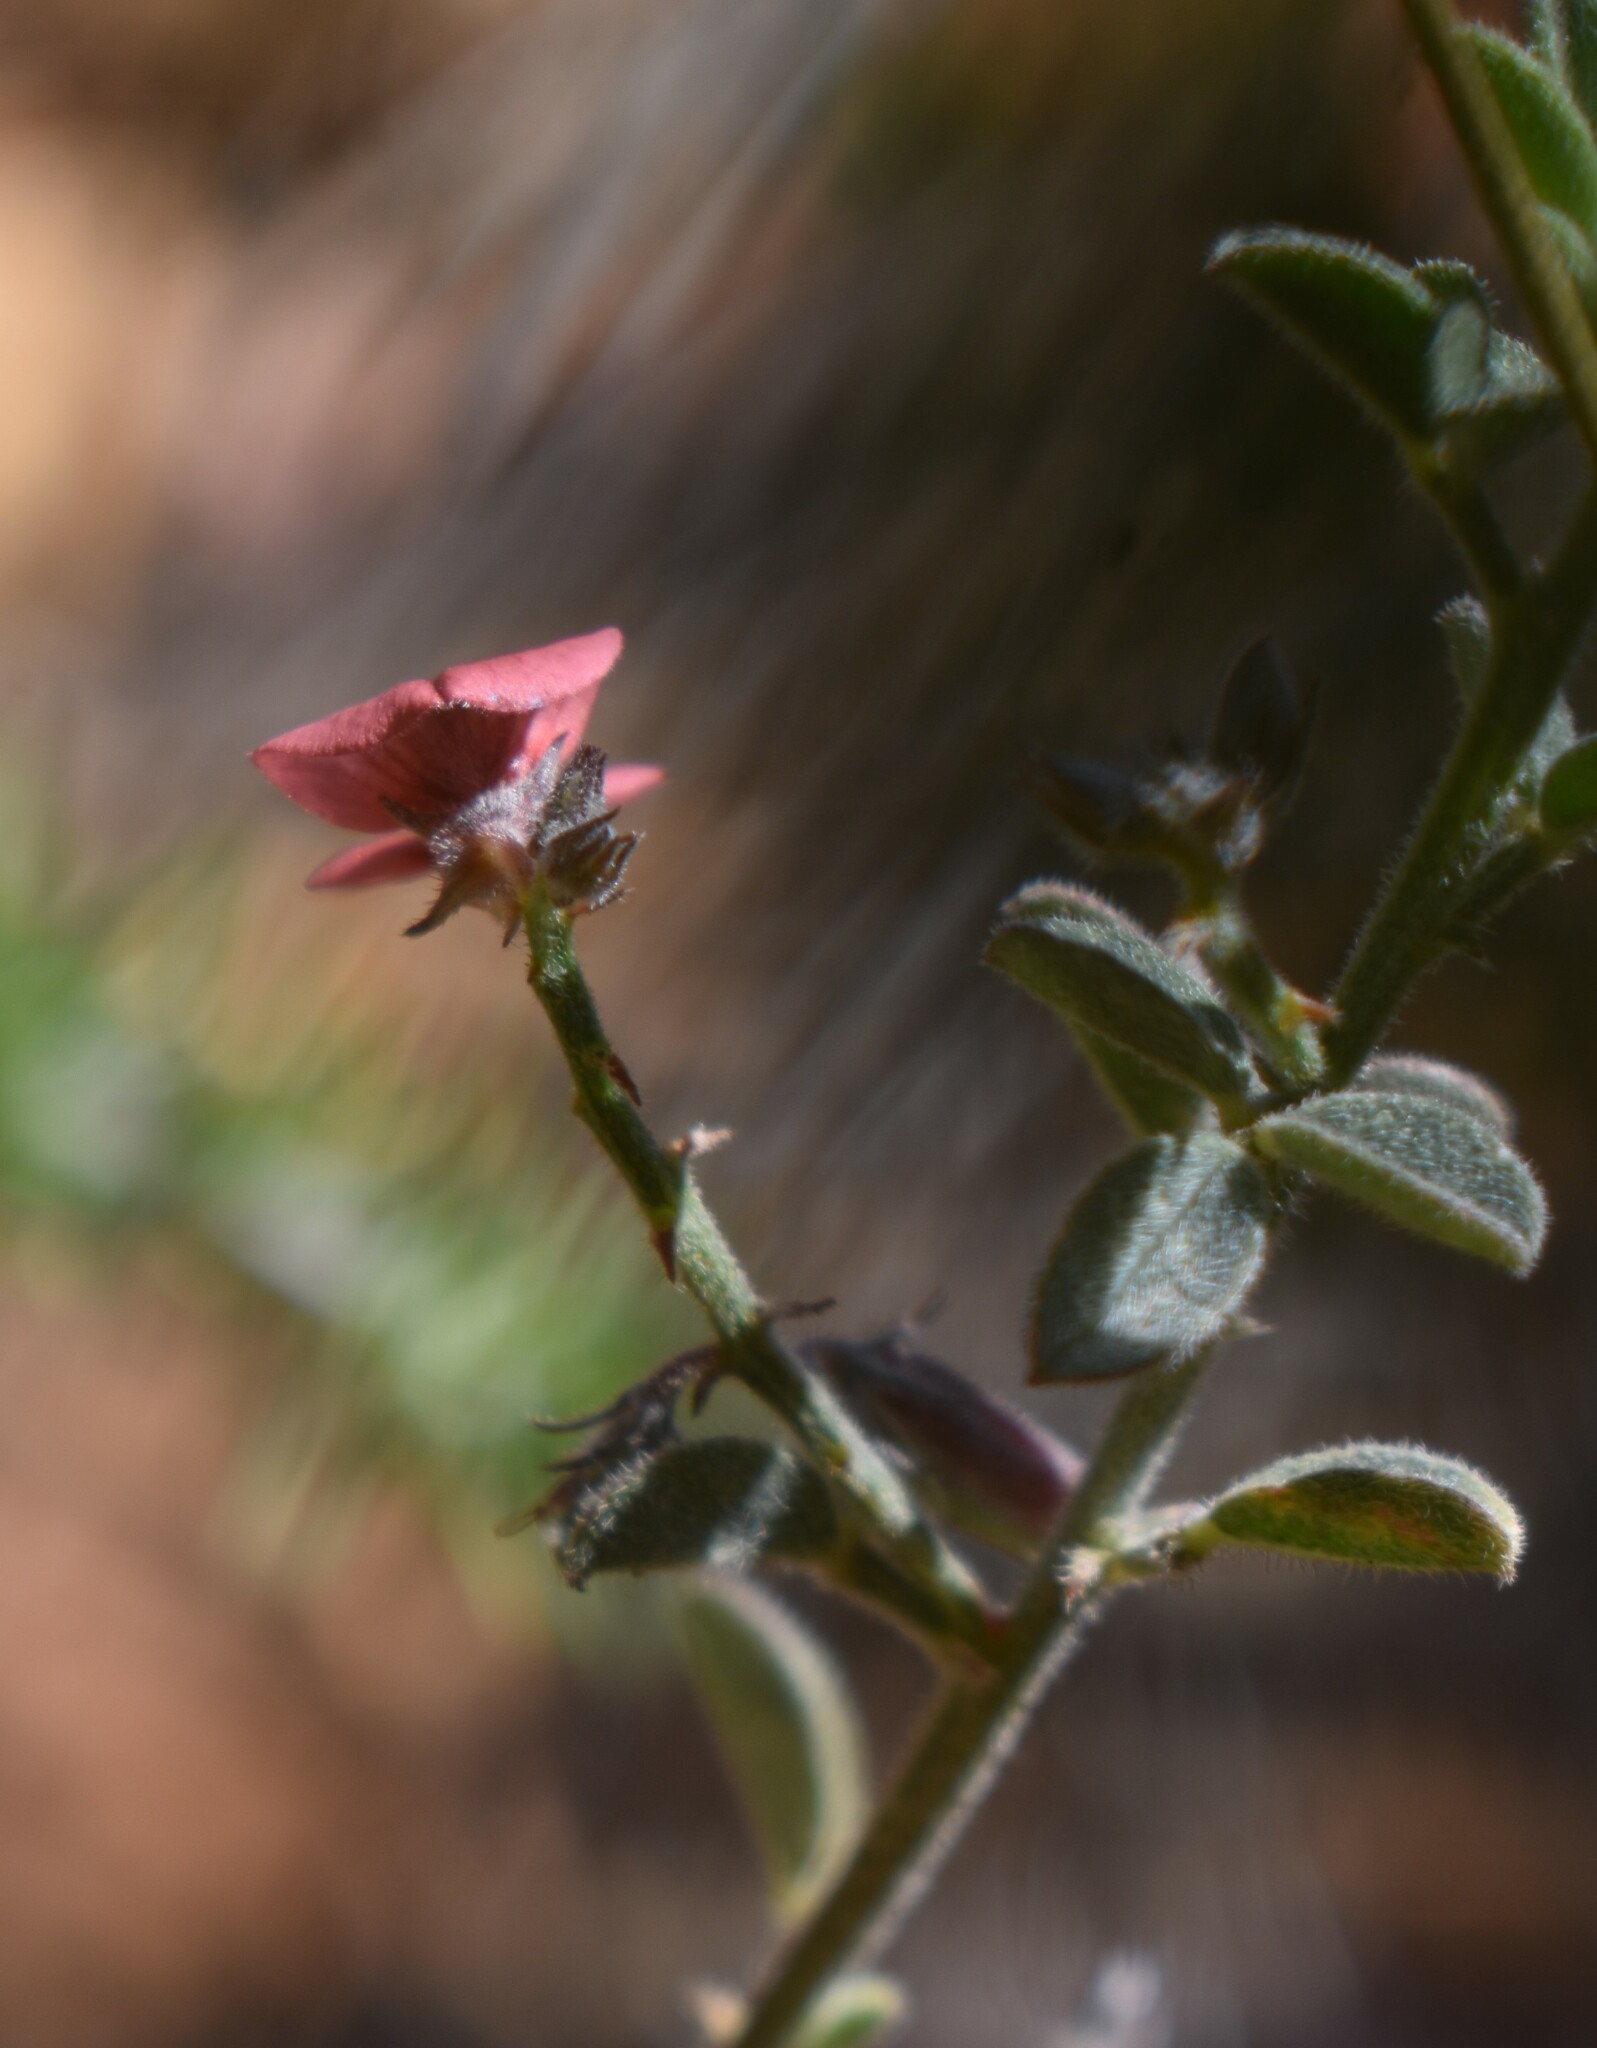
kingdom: Plantae
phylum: Tracheophyta
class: Magnoliopsida
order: Fabales
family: Fabaceae
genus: Indigofera
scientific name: Indigofera priorii
